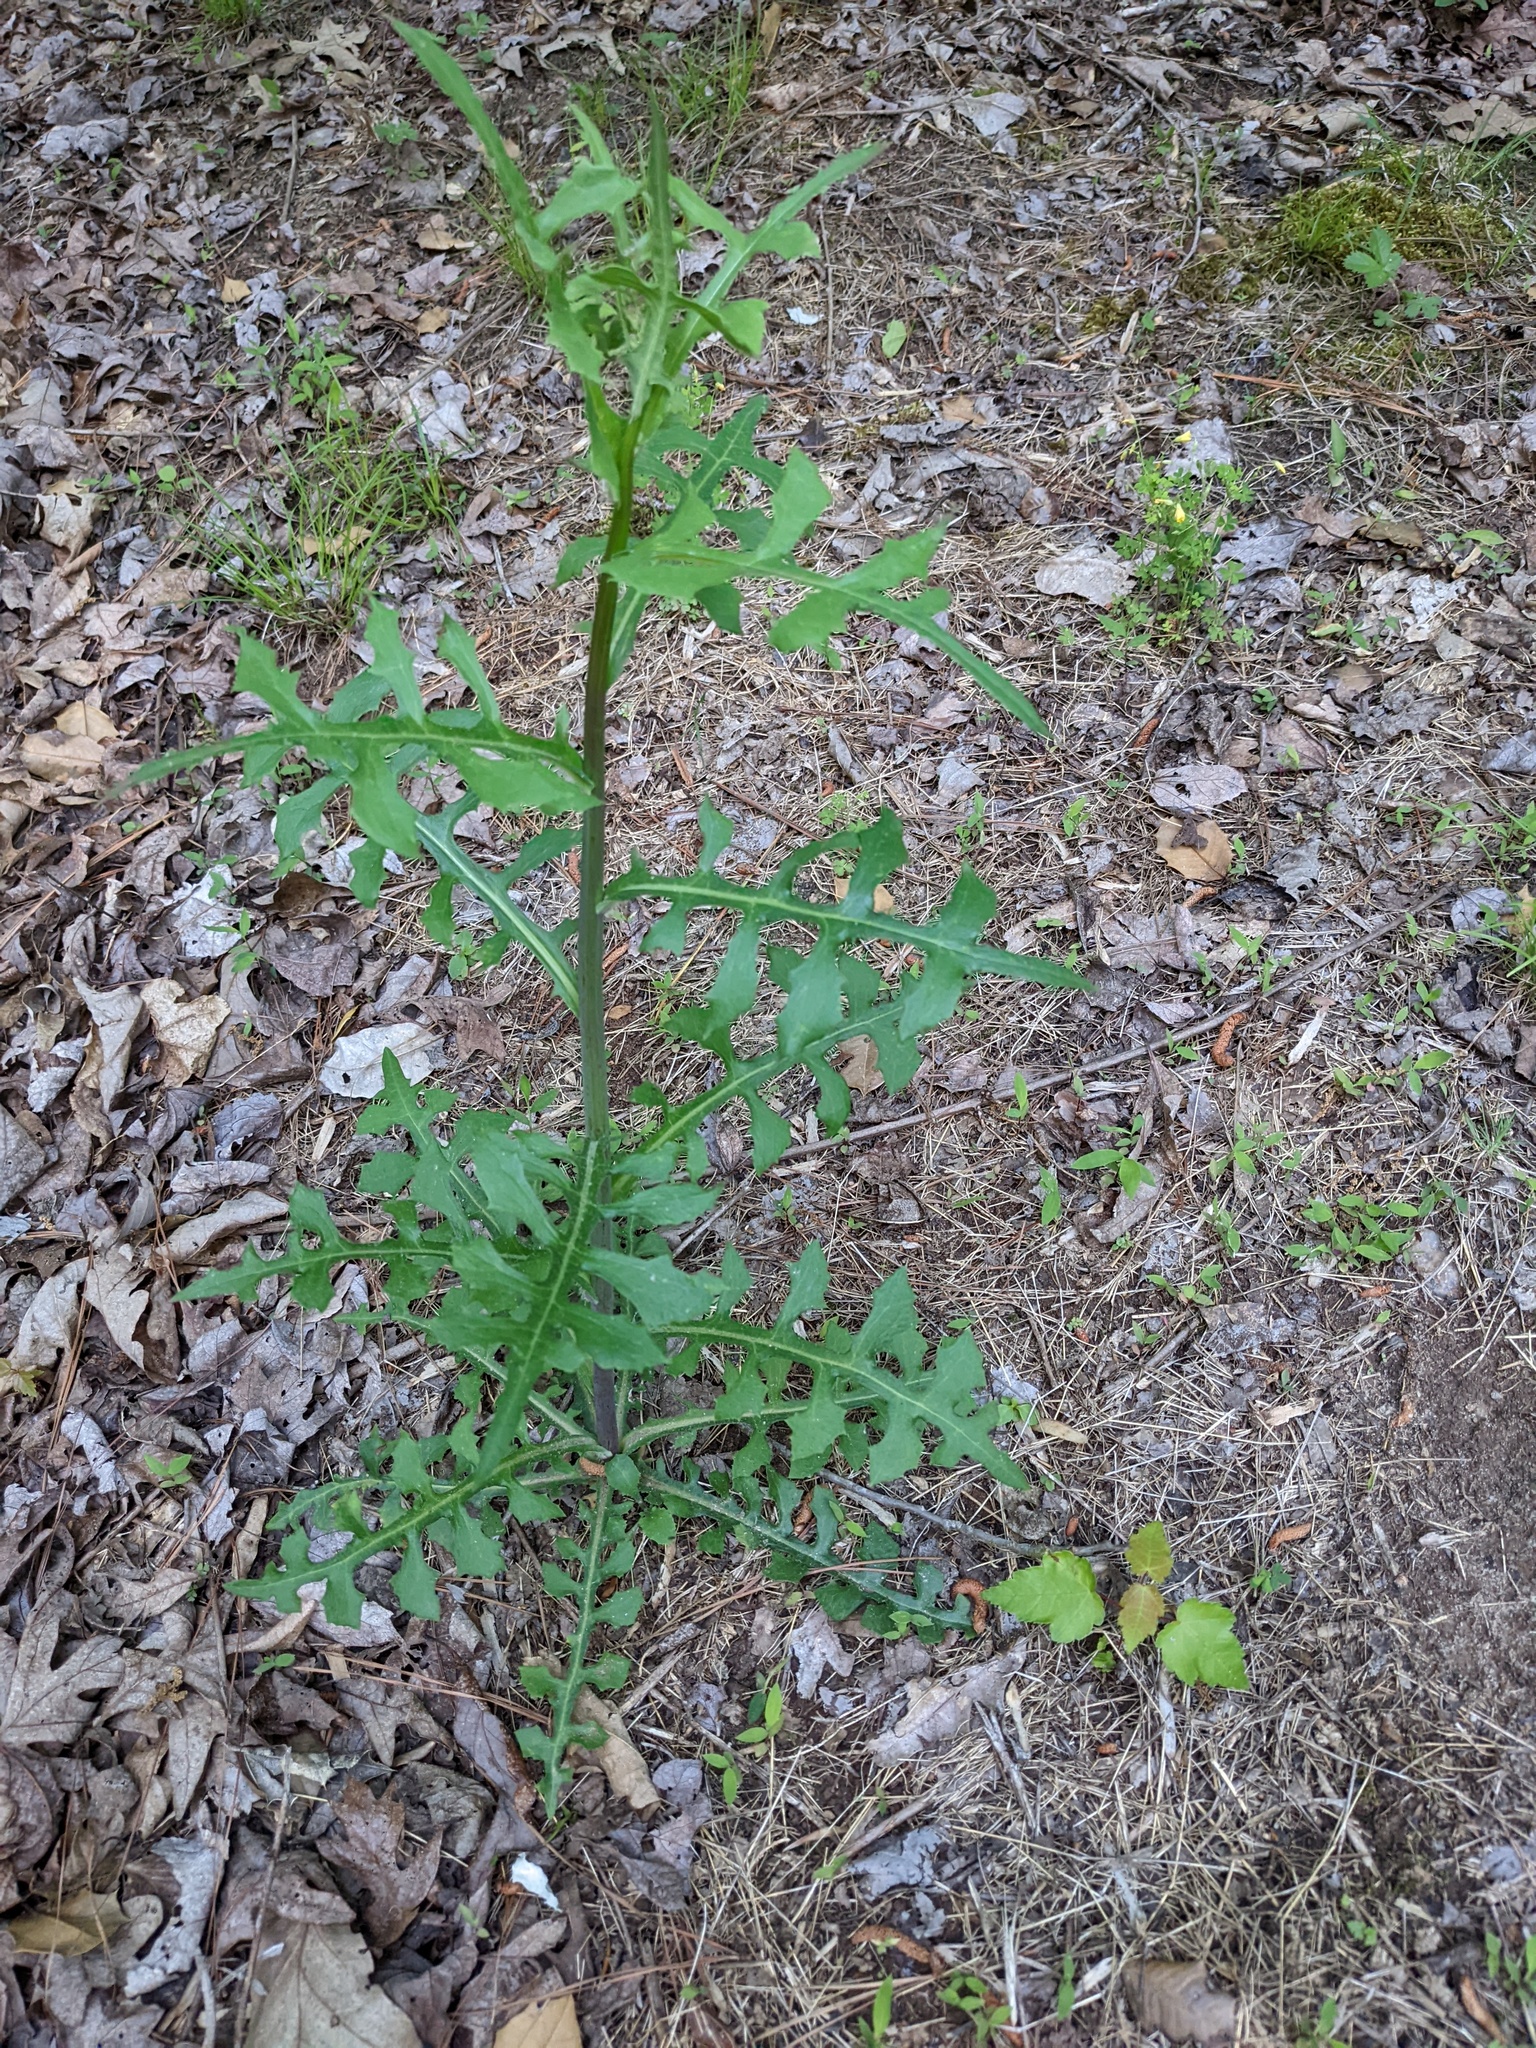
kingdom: Plantae
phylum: Tracheophyta
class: Magnoliopsida
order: Asterales
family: Asteraceae
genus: Lactuca
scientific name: Lactuca canadensis
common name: Canada lettuce
